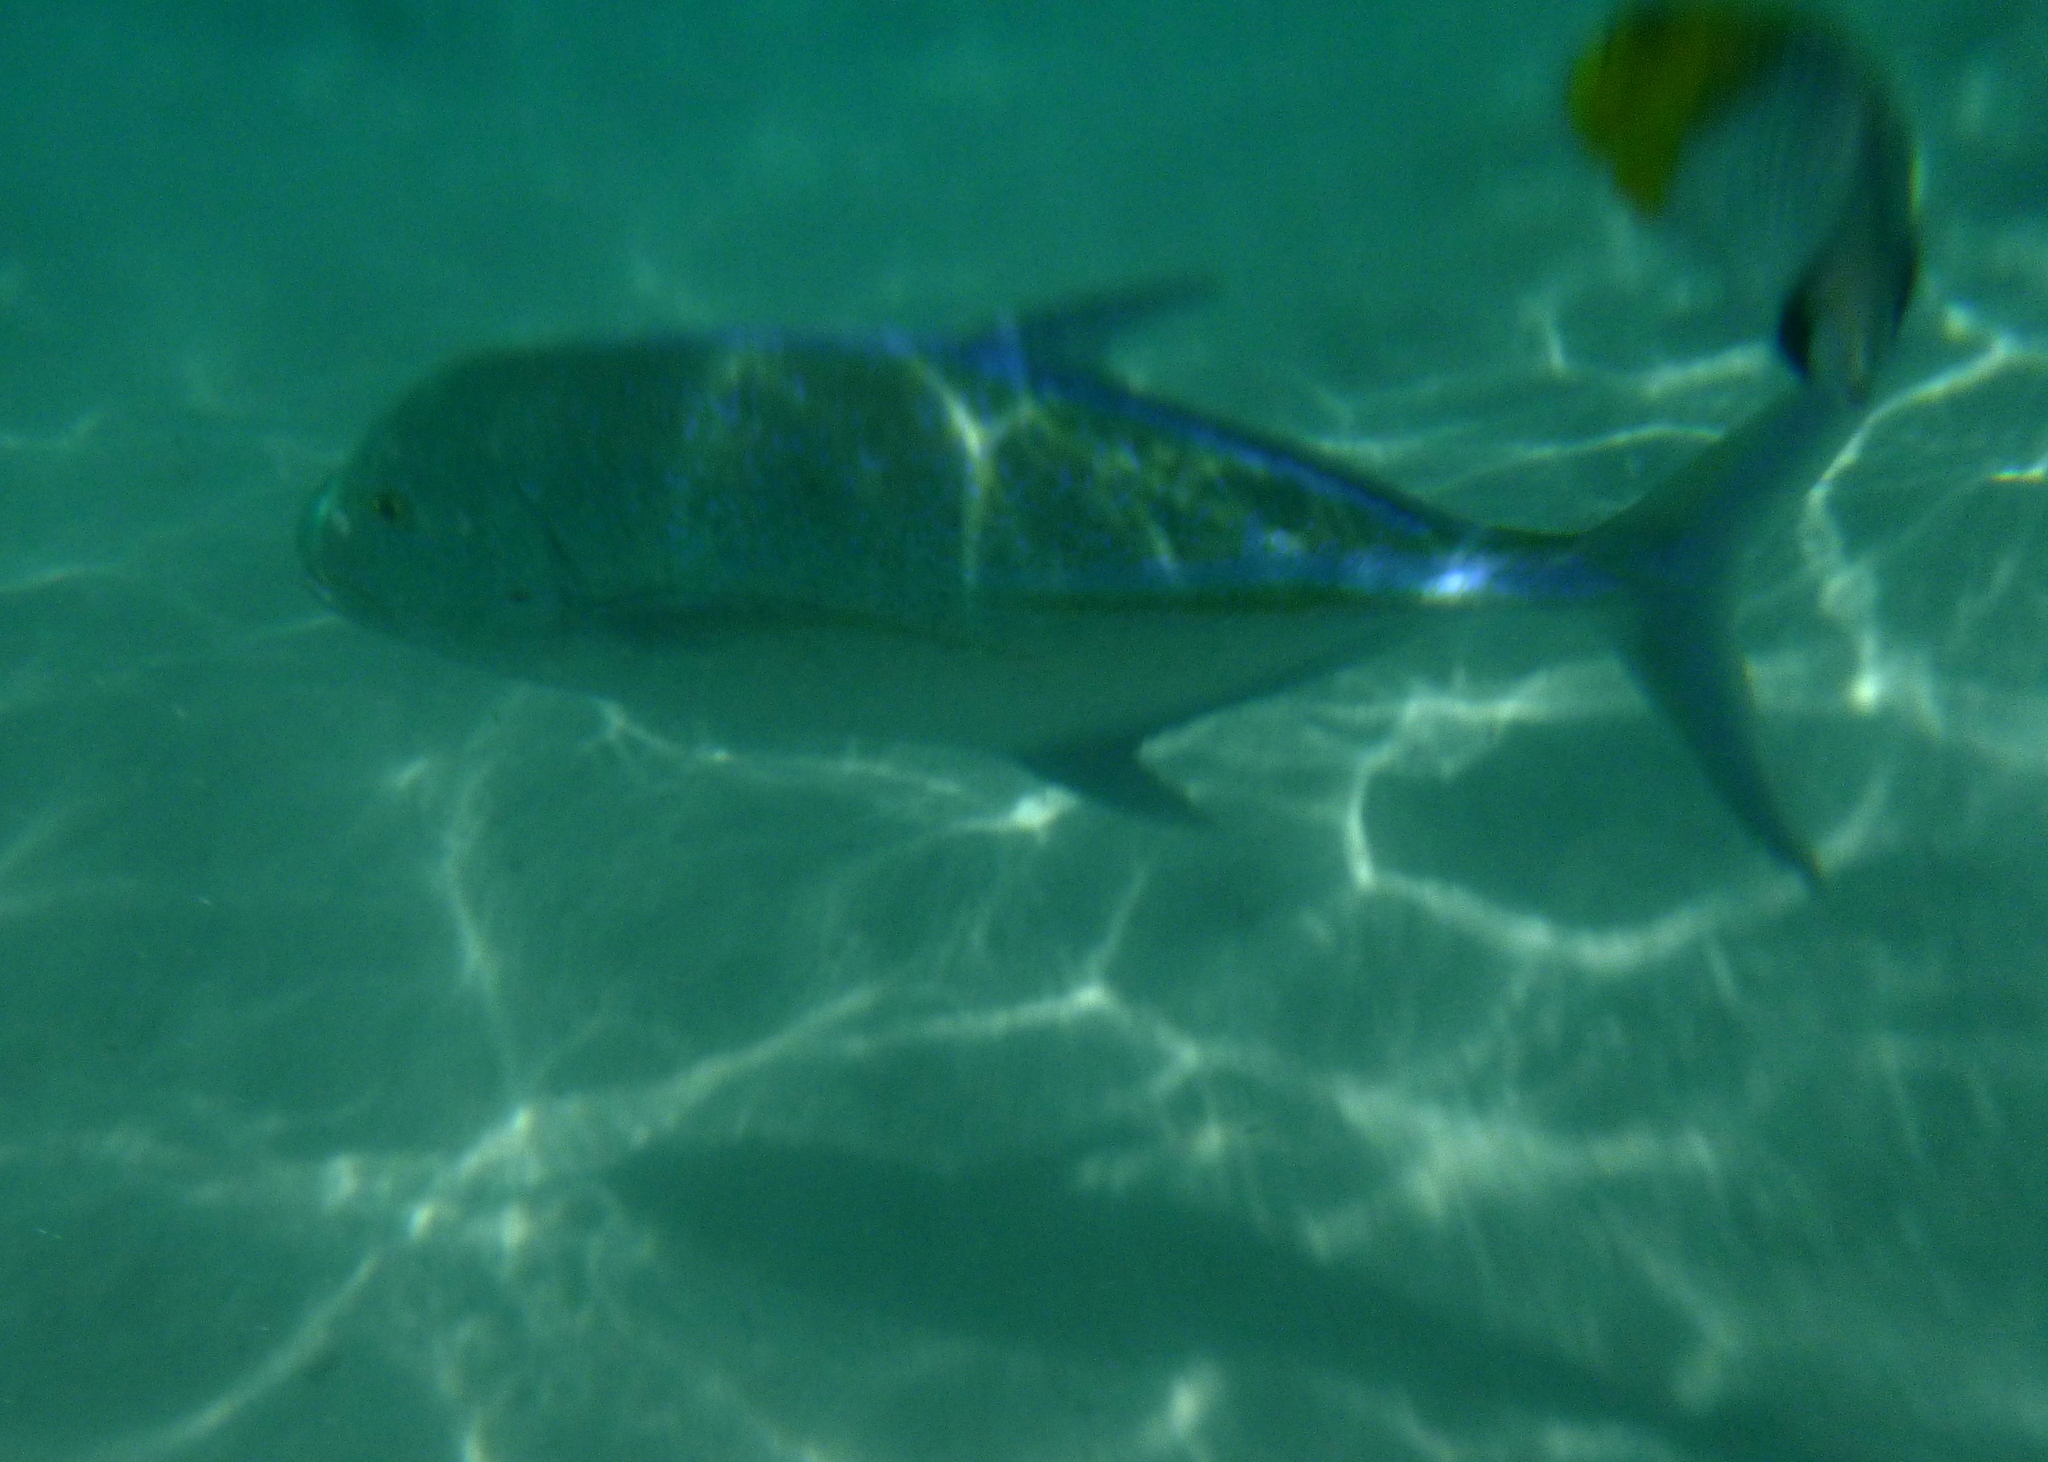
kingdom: Animalia
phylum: Chordata
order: Perciformes
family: Carangidae
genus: Caranx
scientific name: Caranx melampygus
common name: Bluefin trevally
